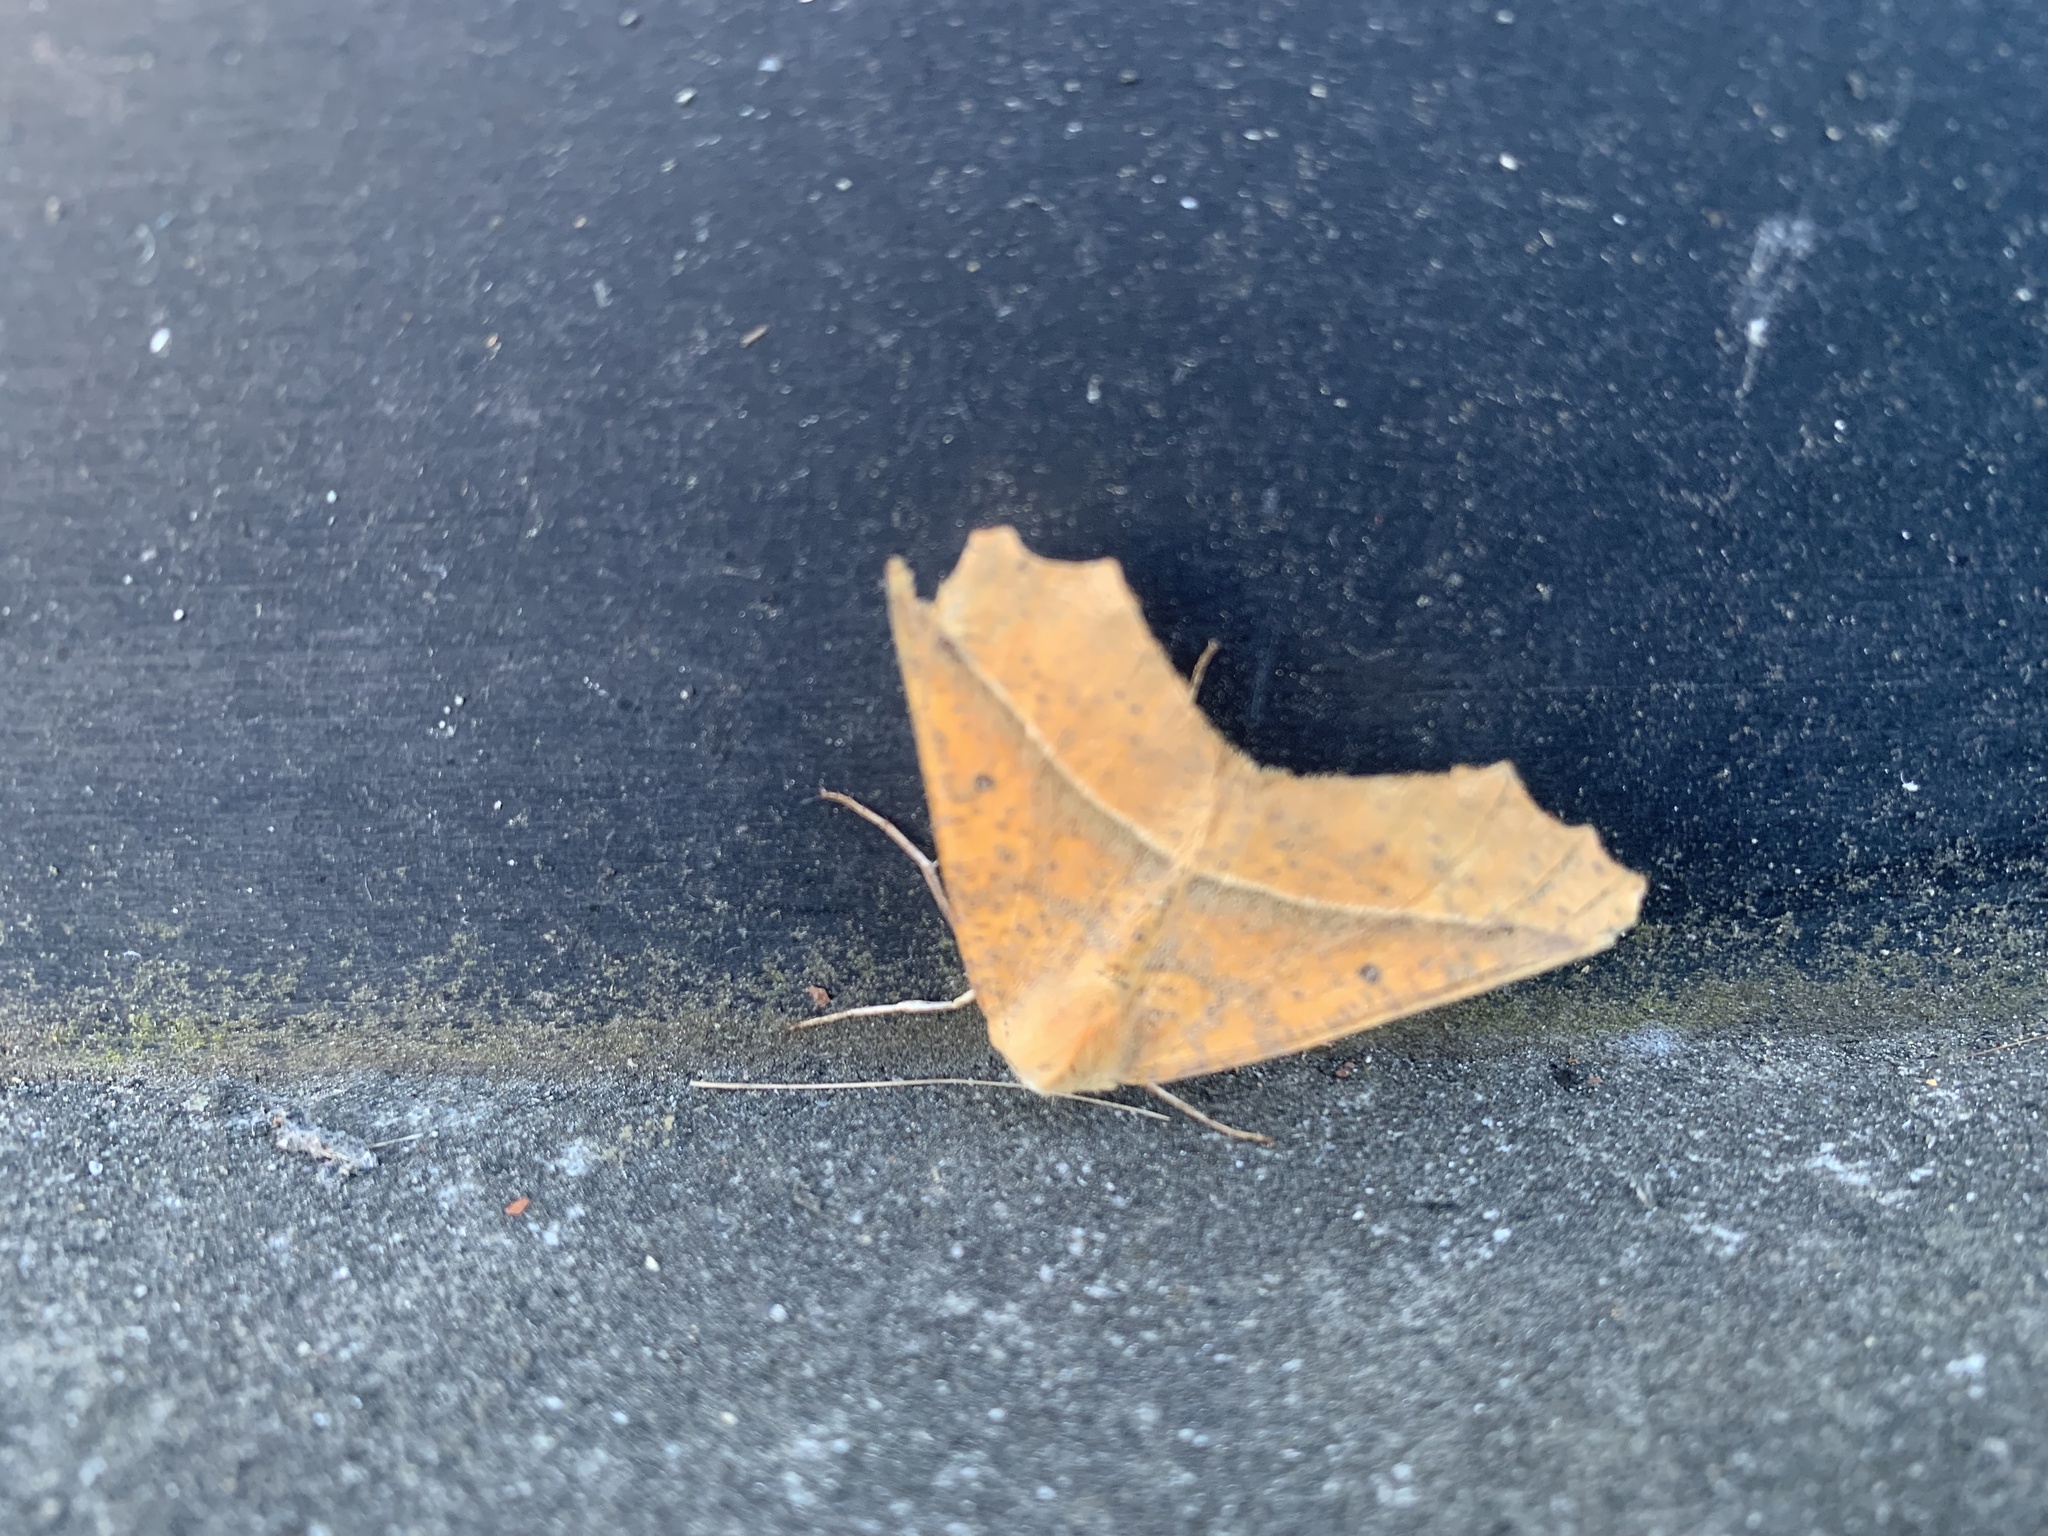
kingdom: Animalia
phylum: Arthropoda
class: Insecta
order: Lepidoptera
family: Geometridae
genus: Odontopera
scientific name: Odontopera arida
